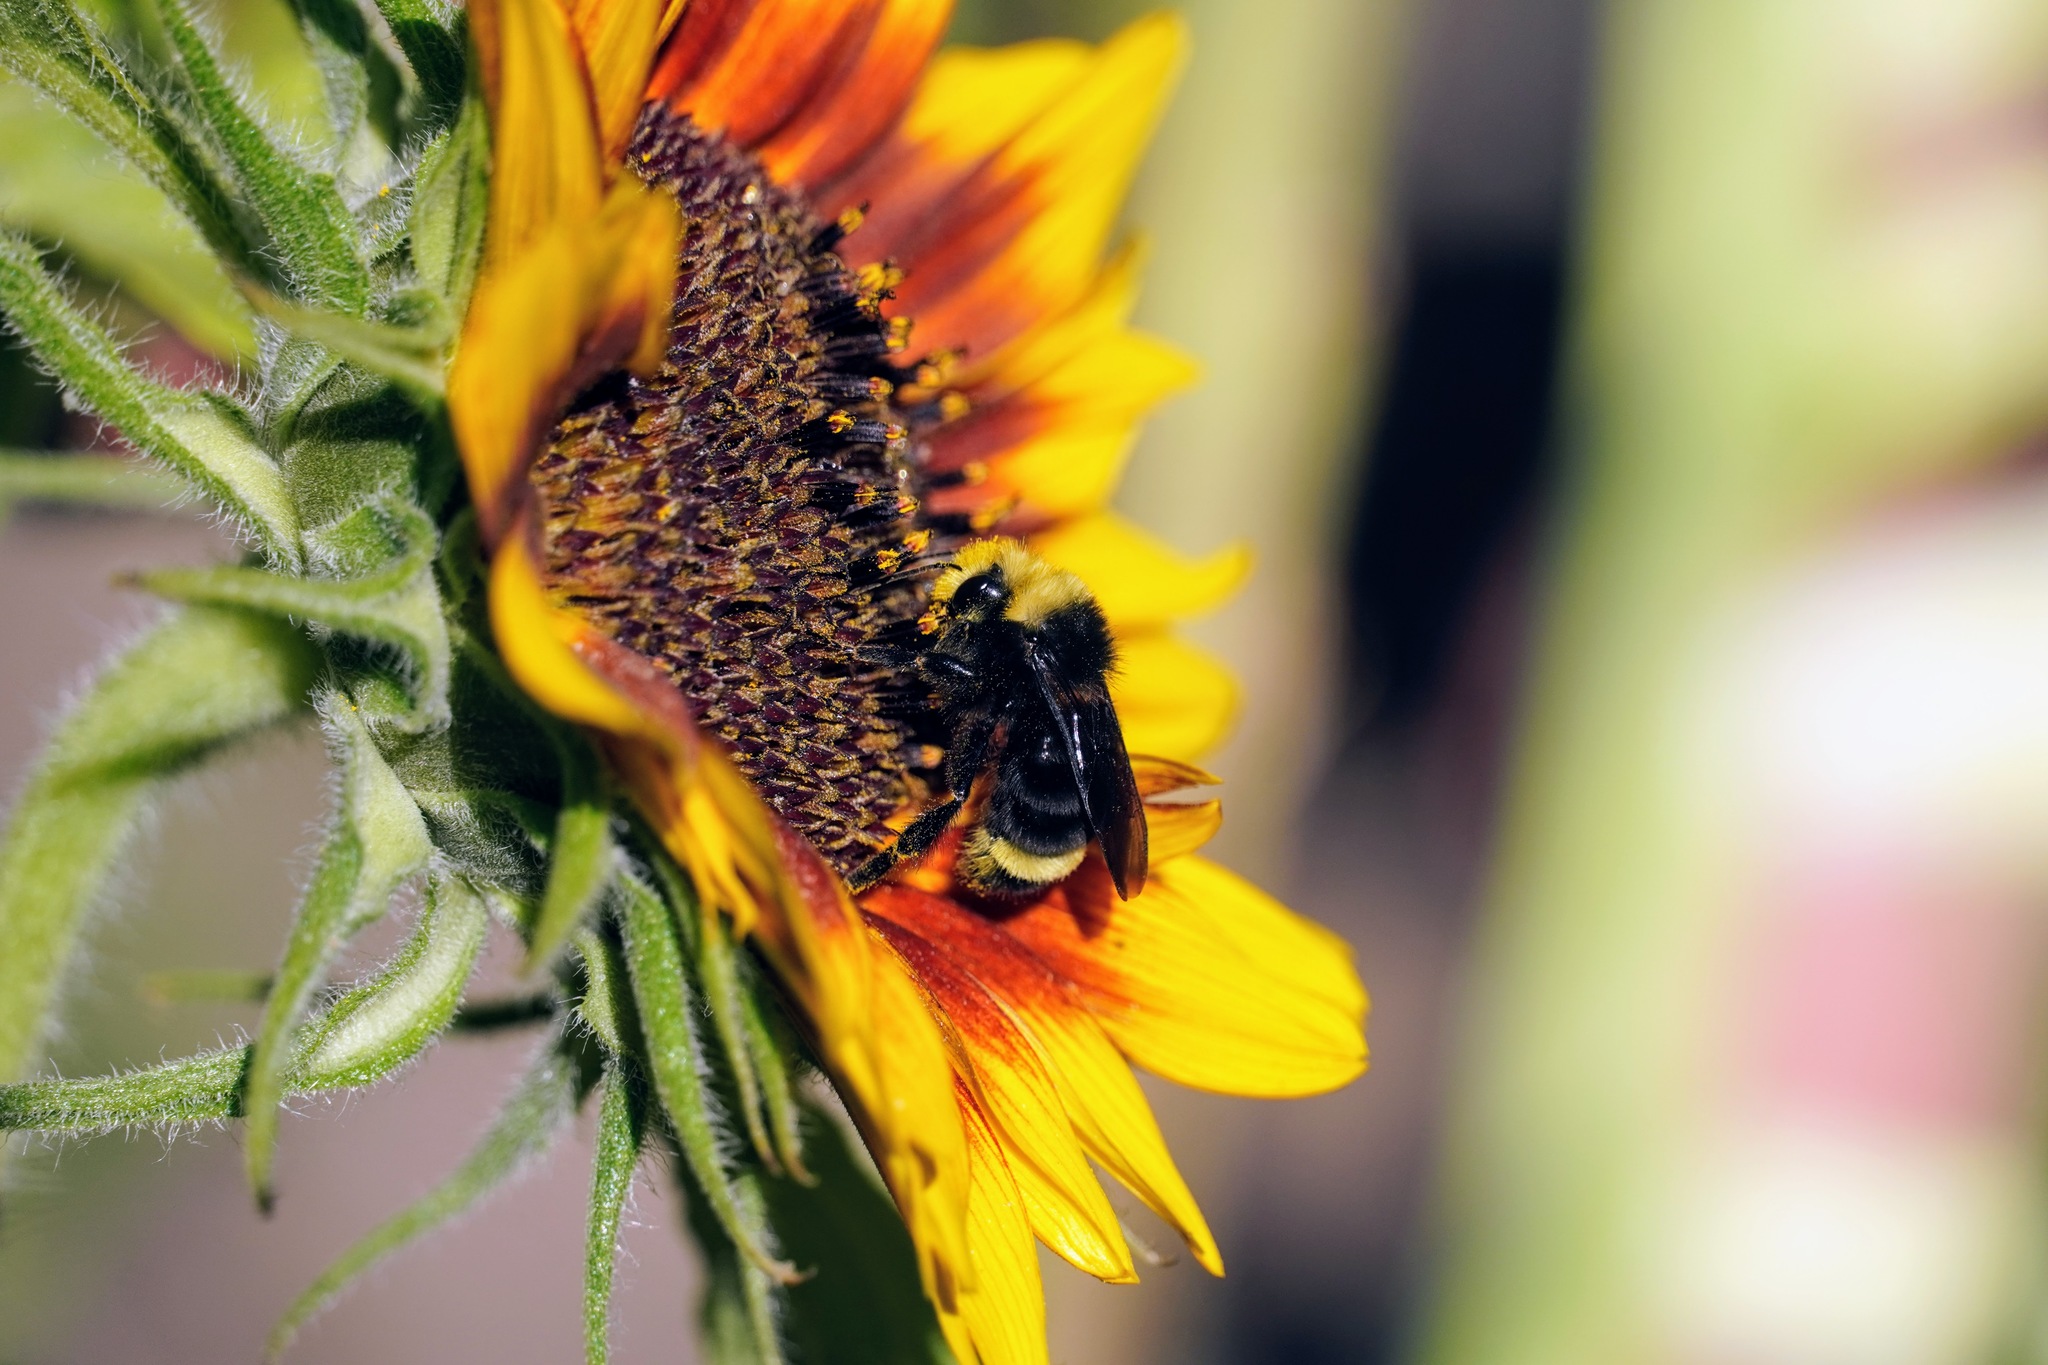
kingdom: Animalia
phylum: Arthropoda
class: Insecta
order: Hymenoptera
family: Apidae
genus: Bombus
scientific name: Bombus vosnesenskii
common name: Vosnesensky bumble bee
